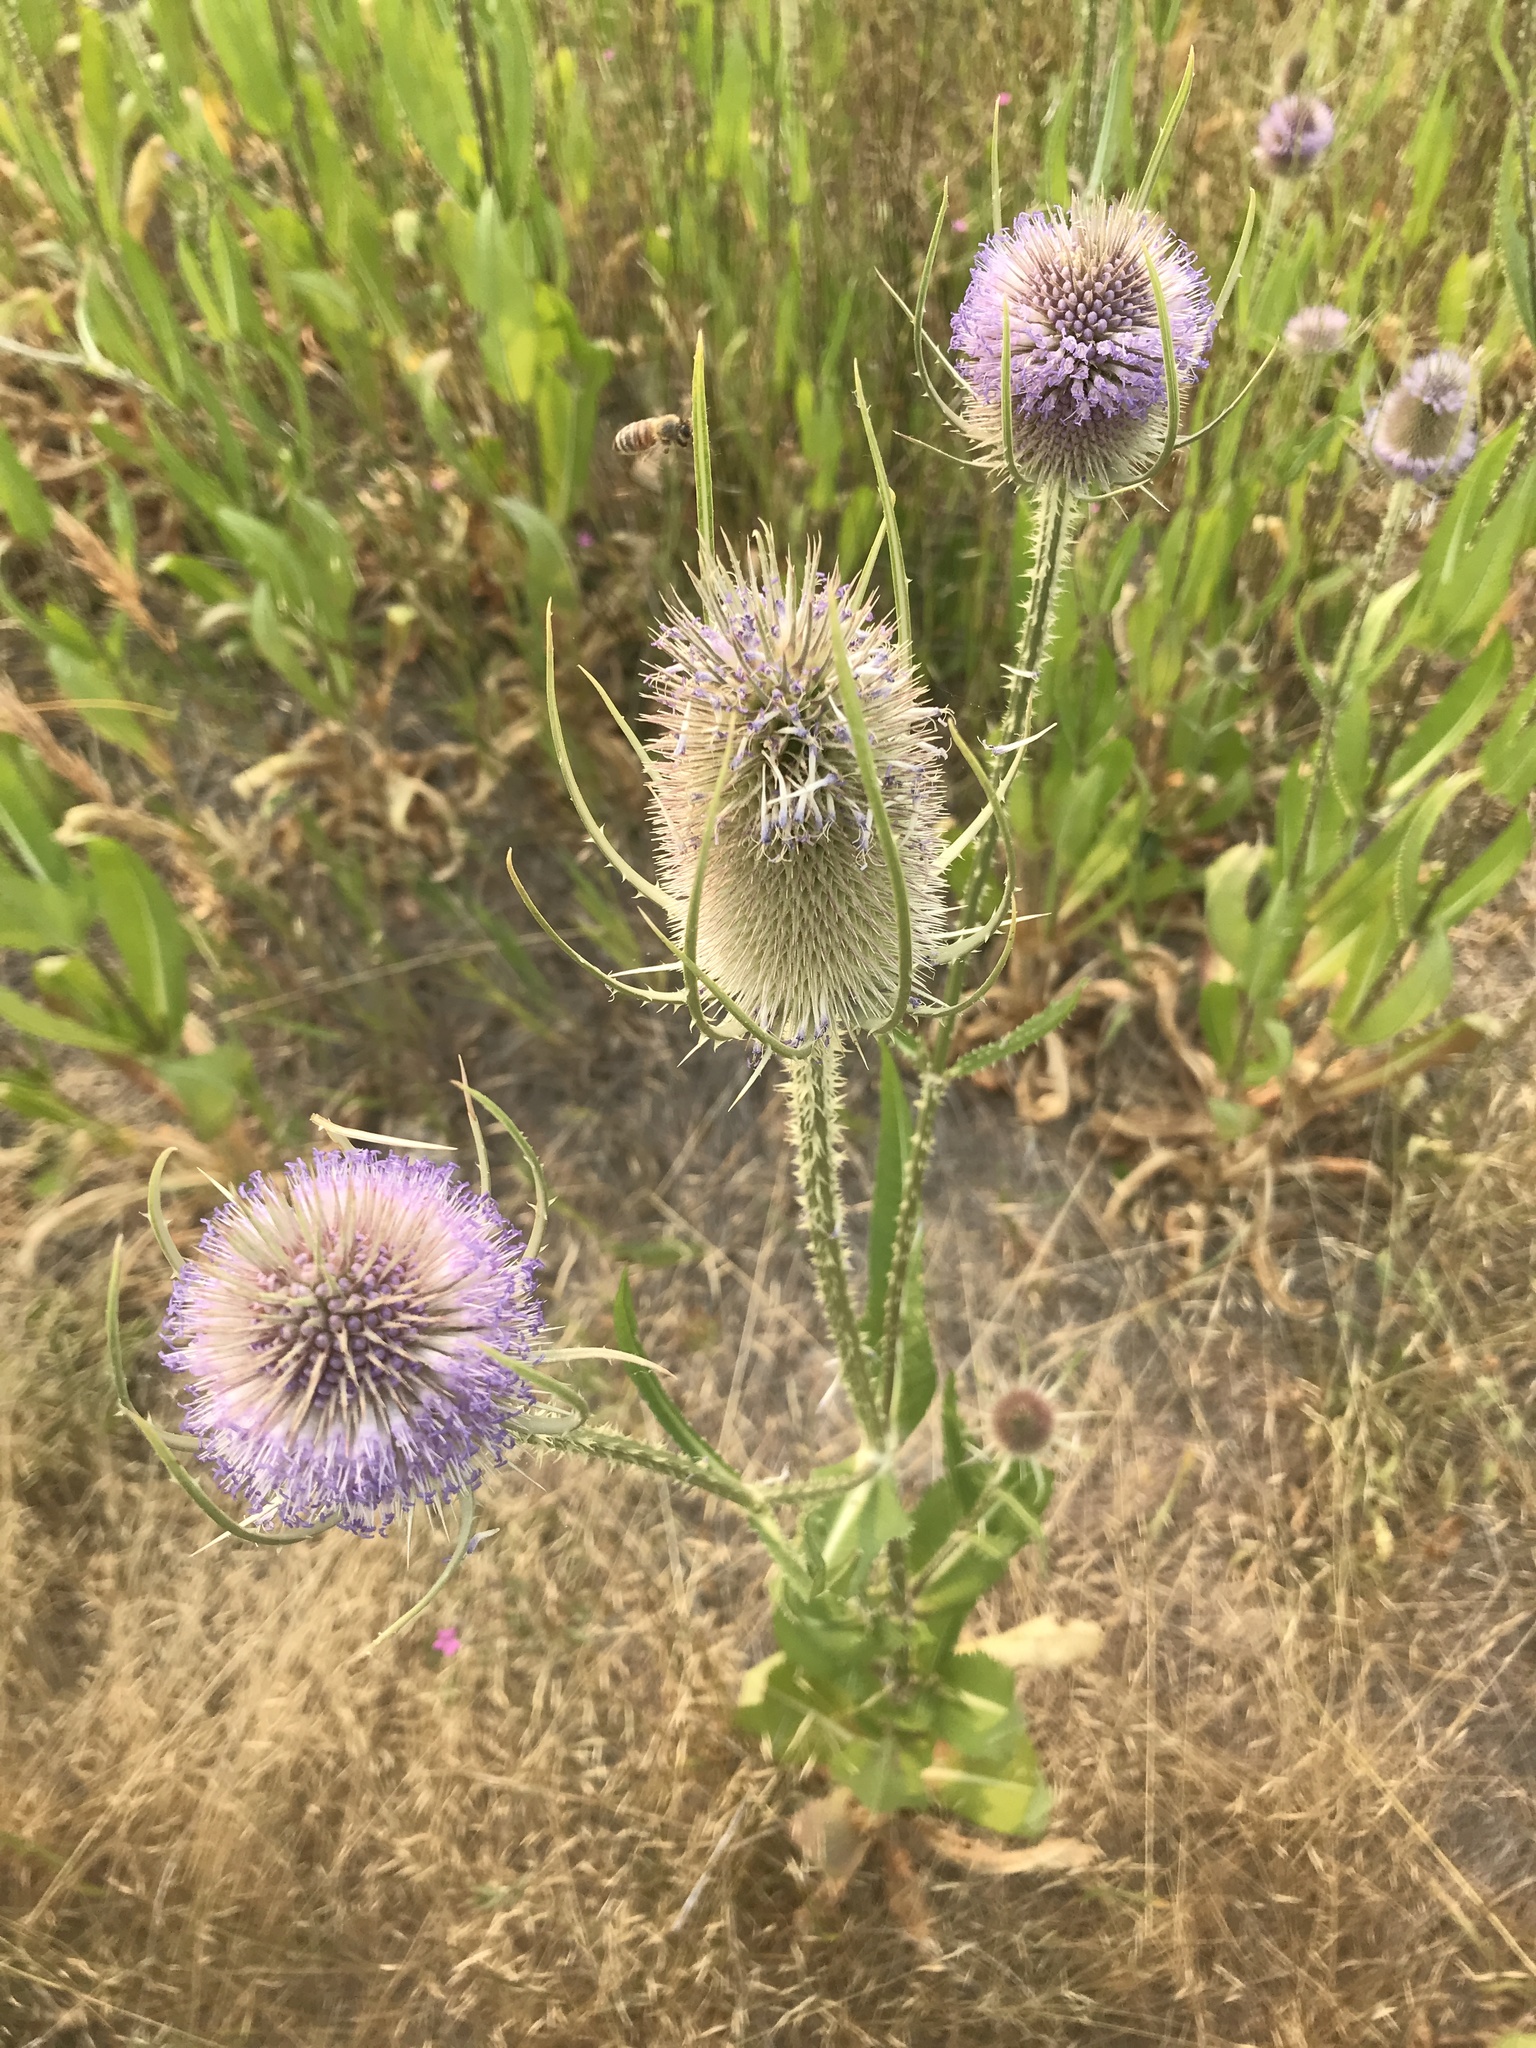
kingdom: Plantae
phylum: Tracheophyta
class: Magnoliopsida
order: Dipsacales
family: Caprifoliaceae
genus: Dipsacus
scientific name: Dipsacus fullonum
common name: Teasel
